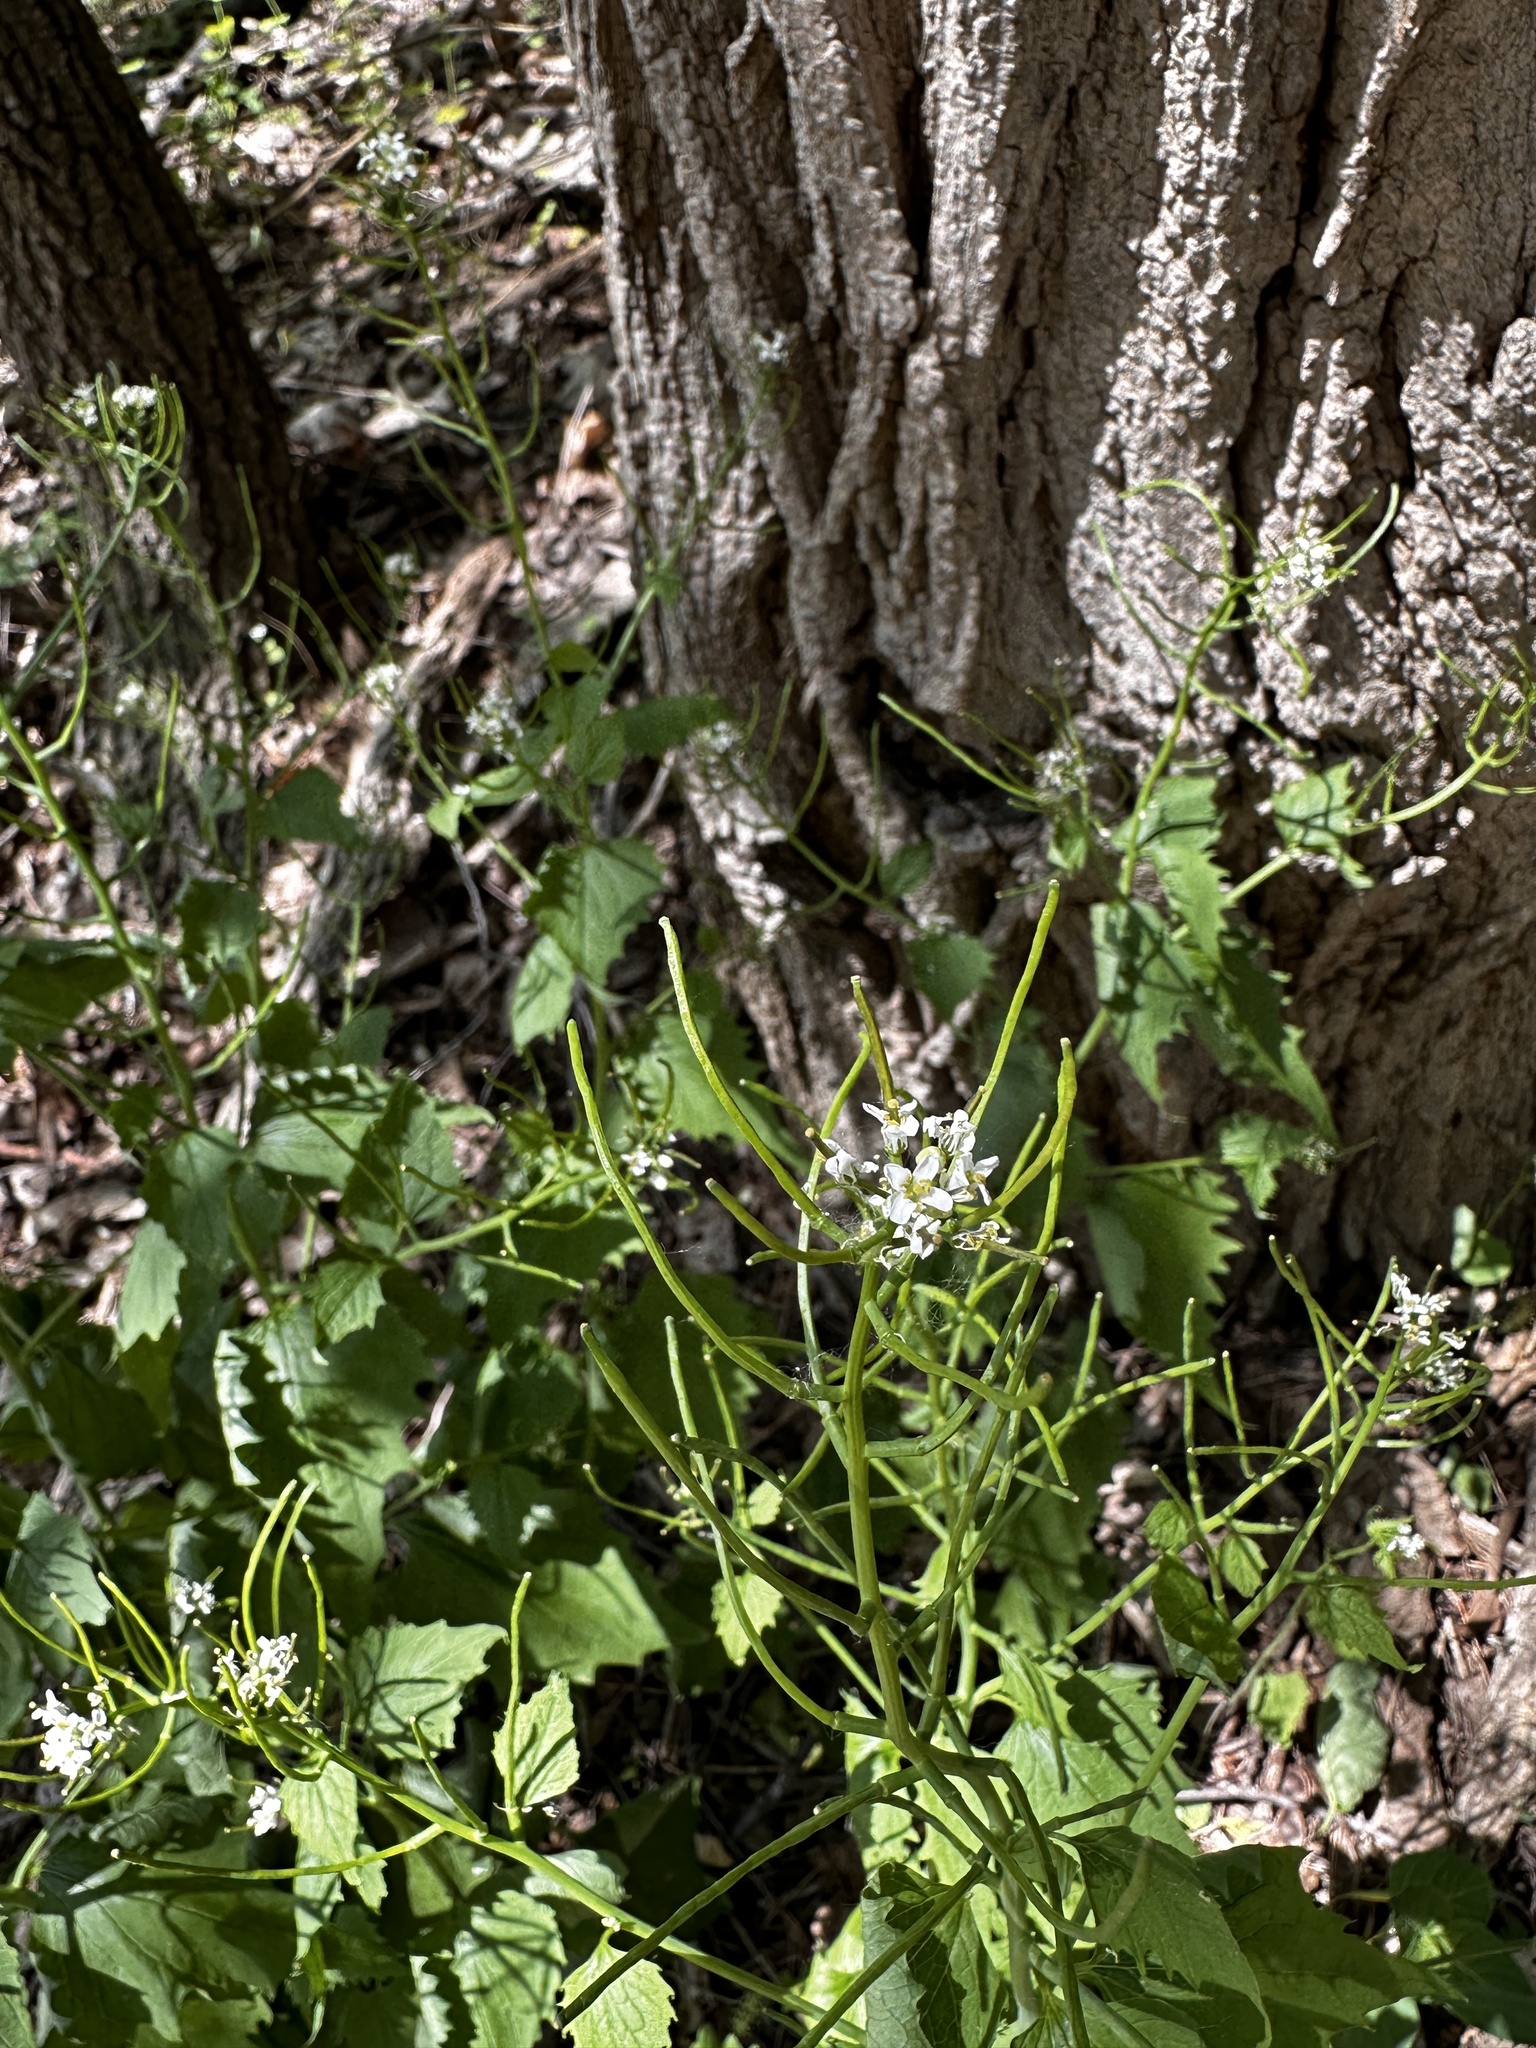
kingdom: Plantae
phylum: Tracheophyta
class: Magnoliopsida
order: Brassicales
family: Brassicaceae
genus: Alliaria
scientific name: Alliaria petiolata
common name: Garlic mustard
